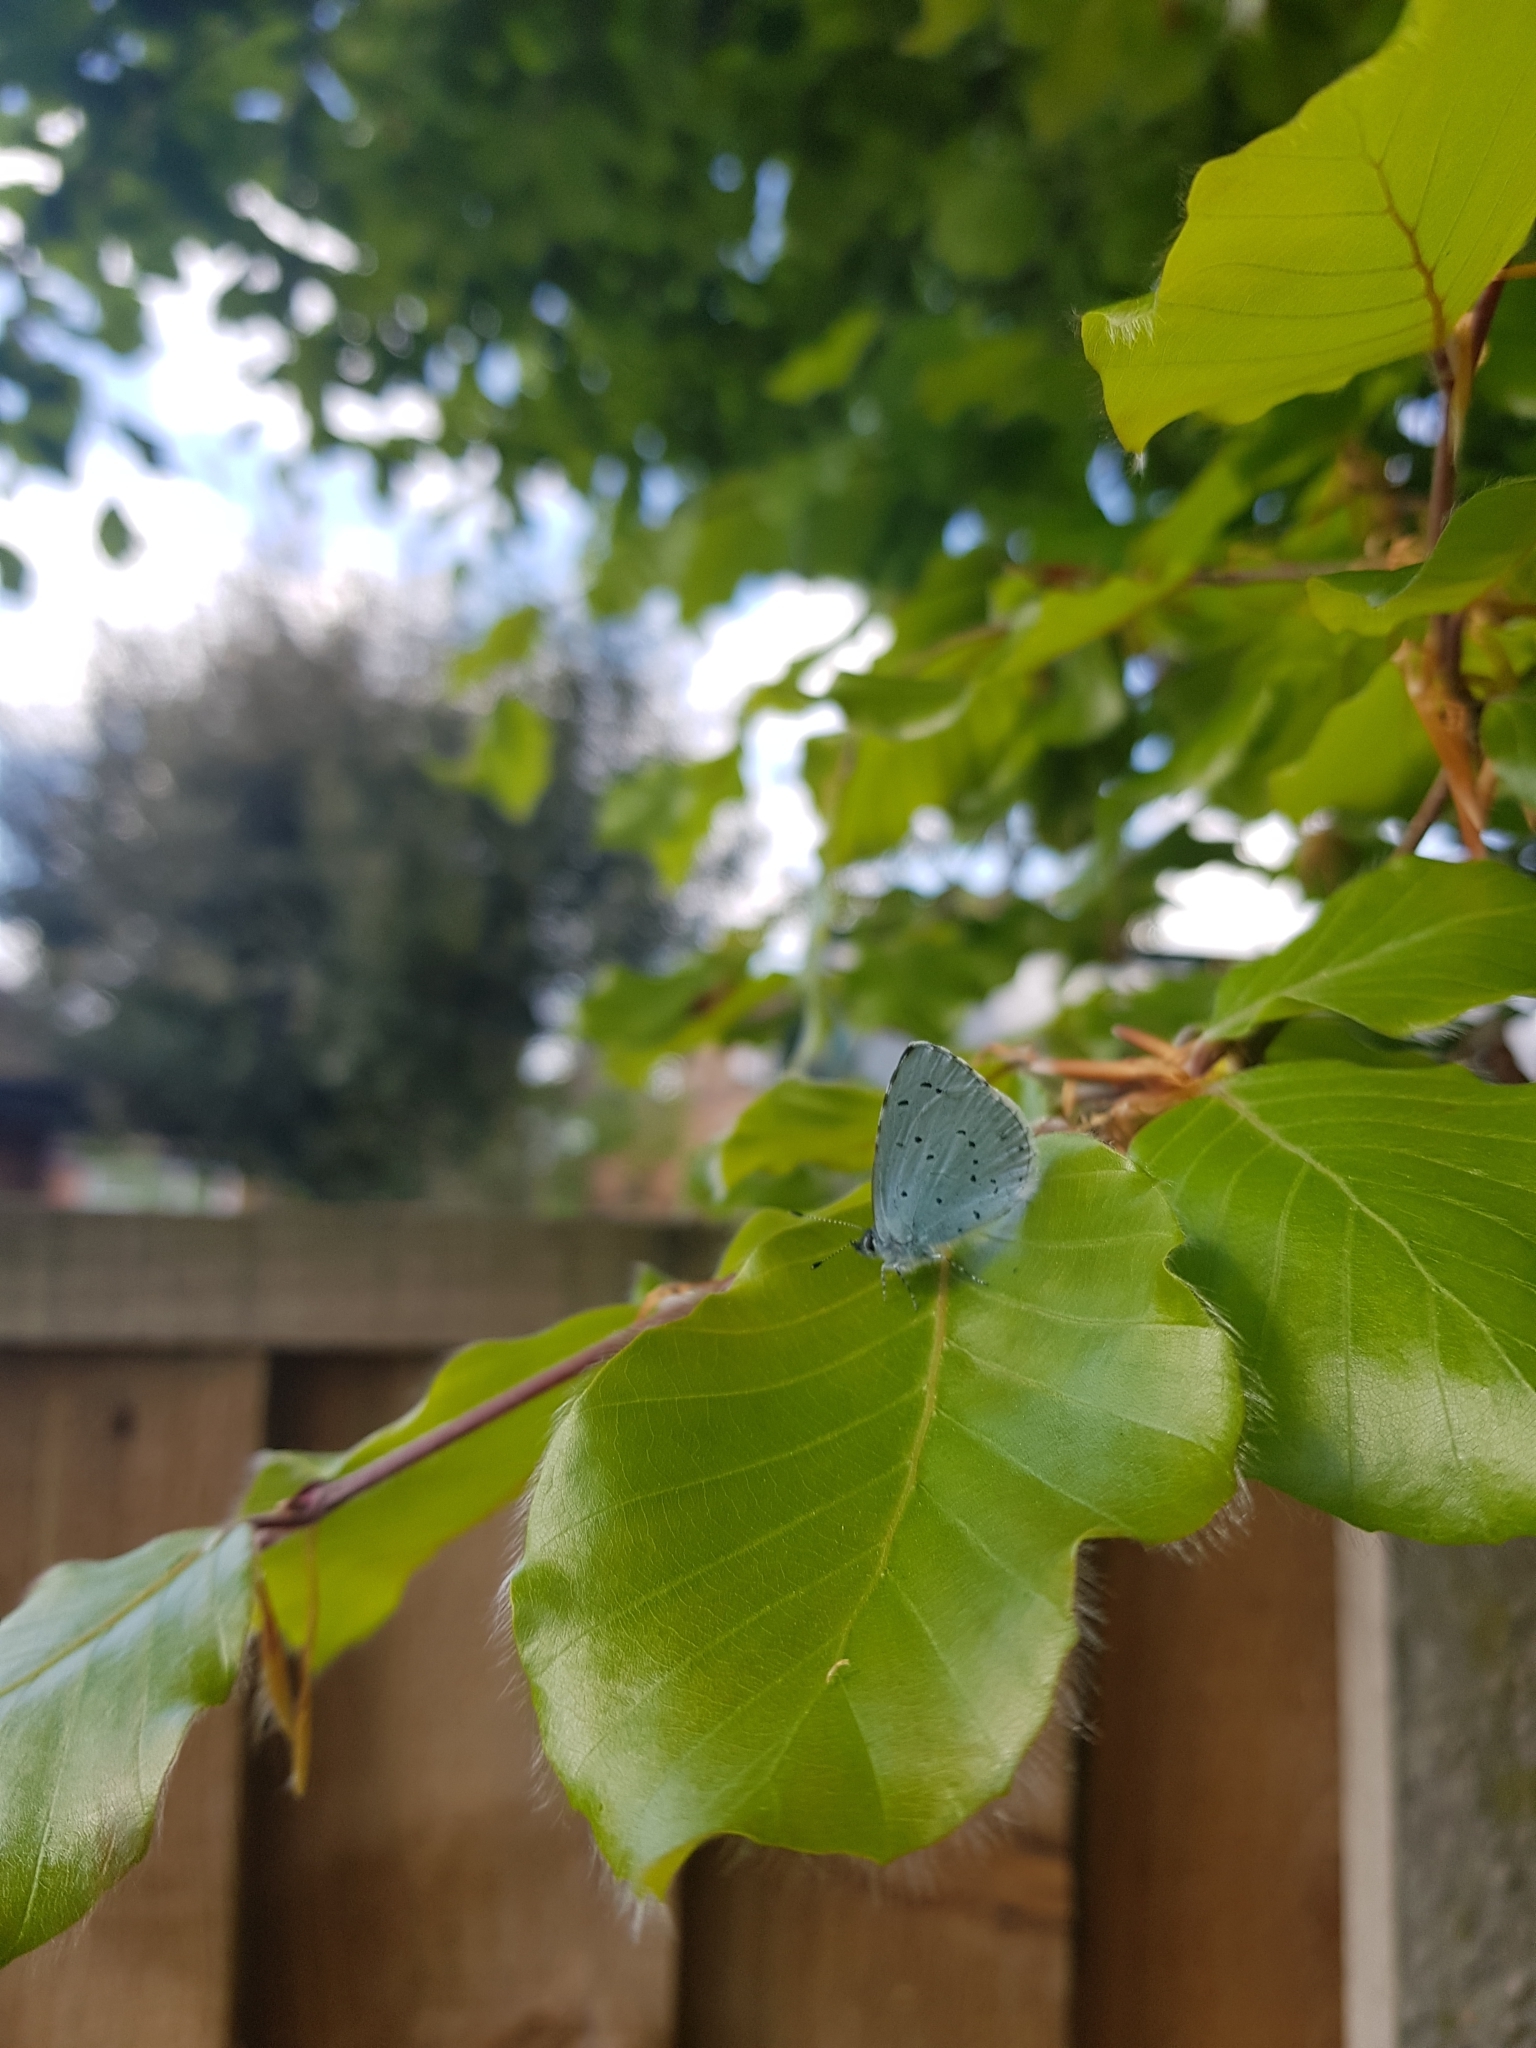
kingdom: Animalia
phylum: Arthropoda
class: Insecta
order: Lepidoptera
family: Lycaenidae
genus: Celastrina
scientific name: Celastrina argiolus
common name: Holly blue
